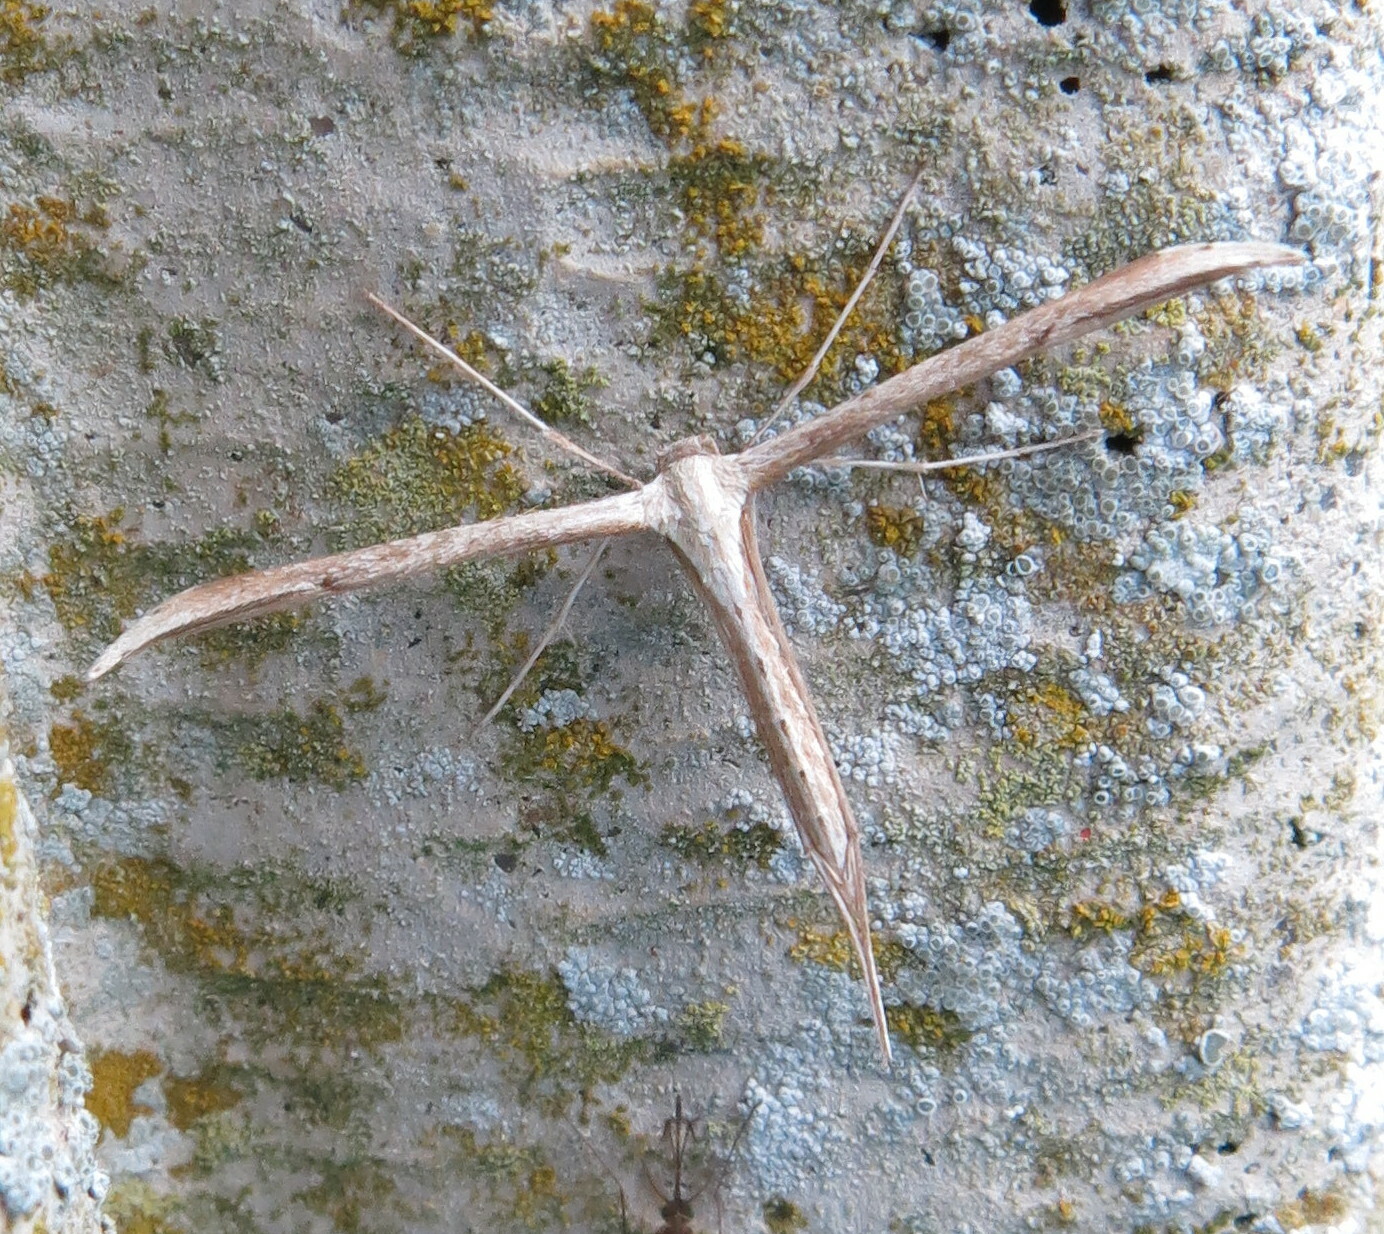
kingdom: Animalia
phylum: Arthropoda
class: Insecta
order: Lepidoptera
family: Pterophoridae
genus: Emmelina
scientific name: Emmelina monodactyla
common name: Common plume
